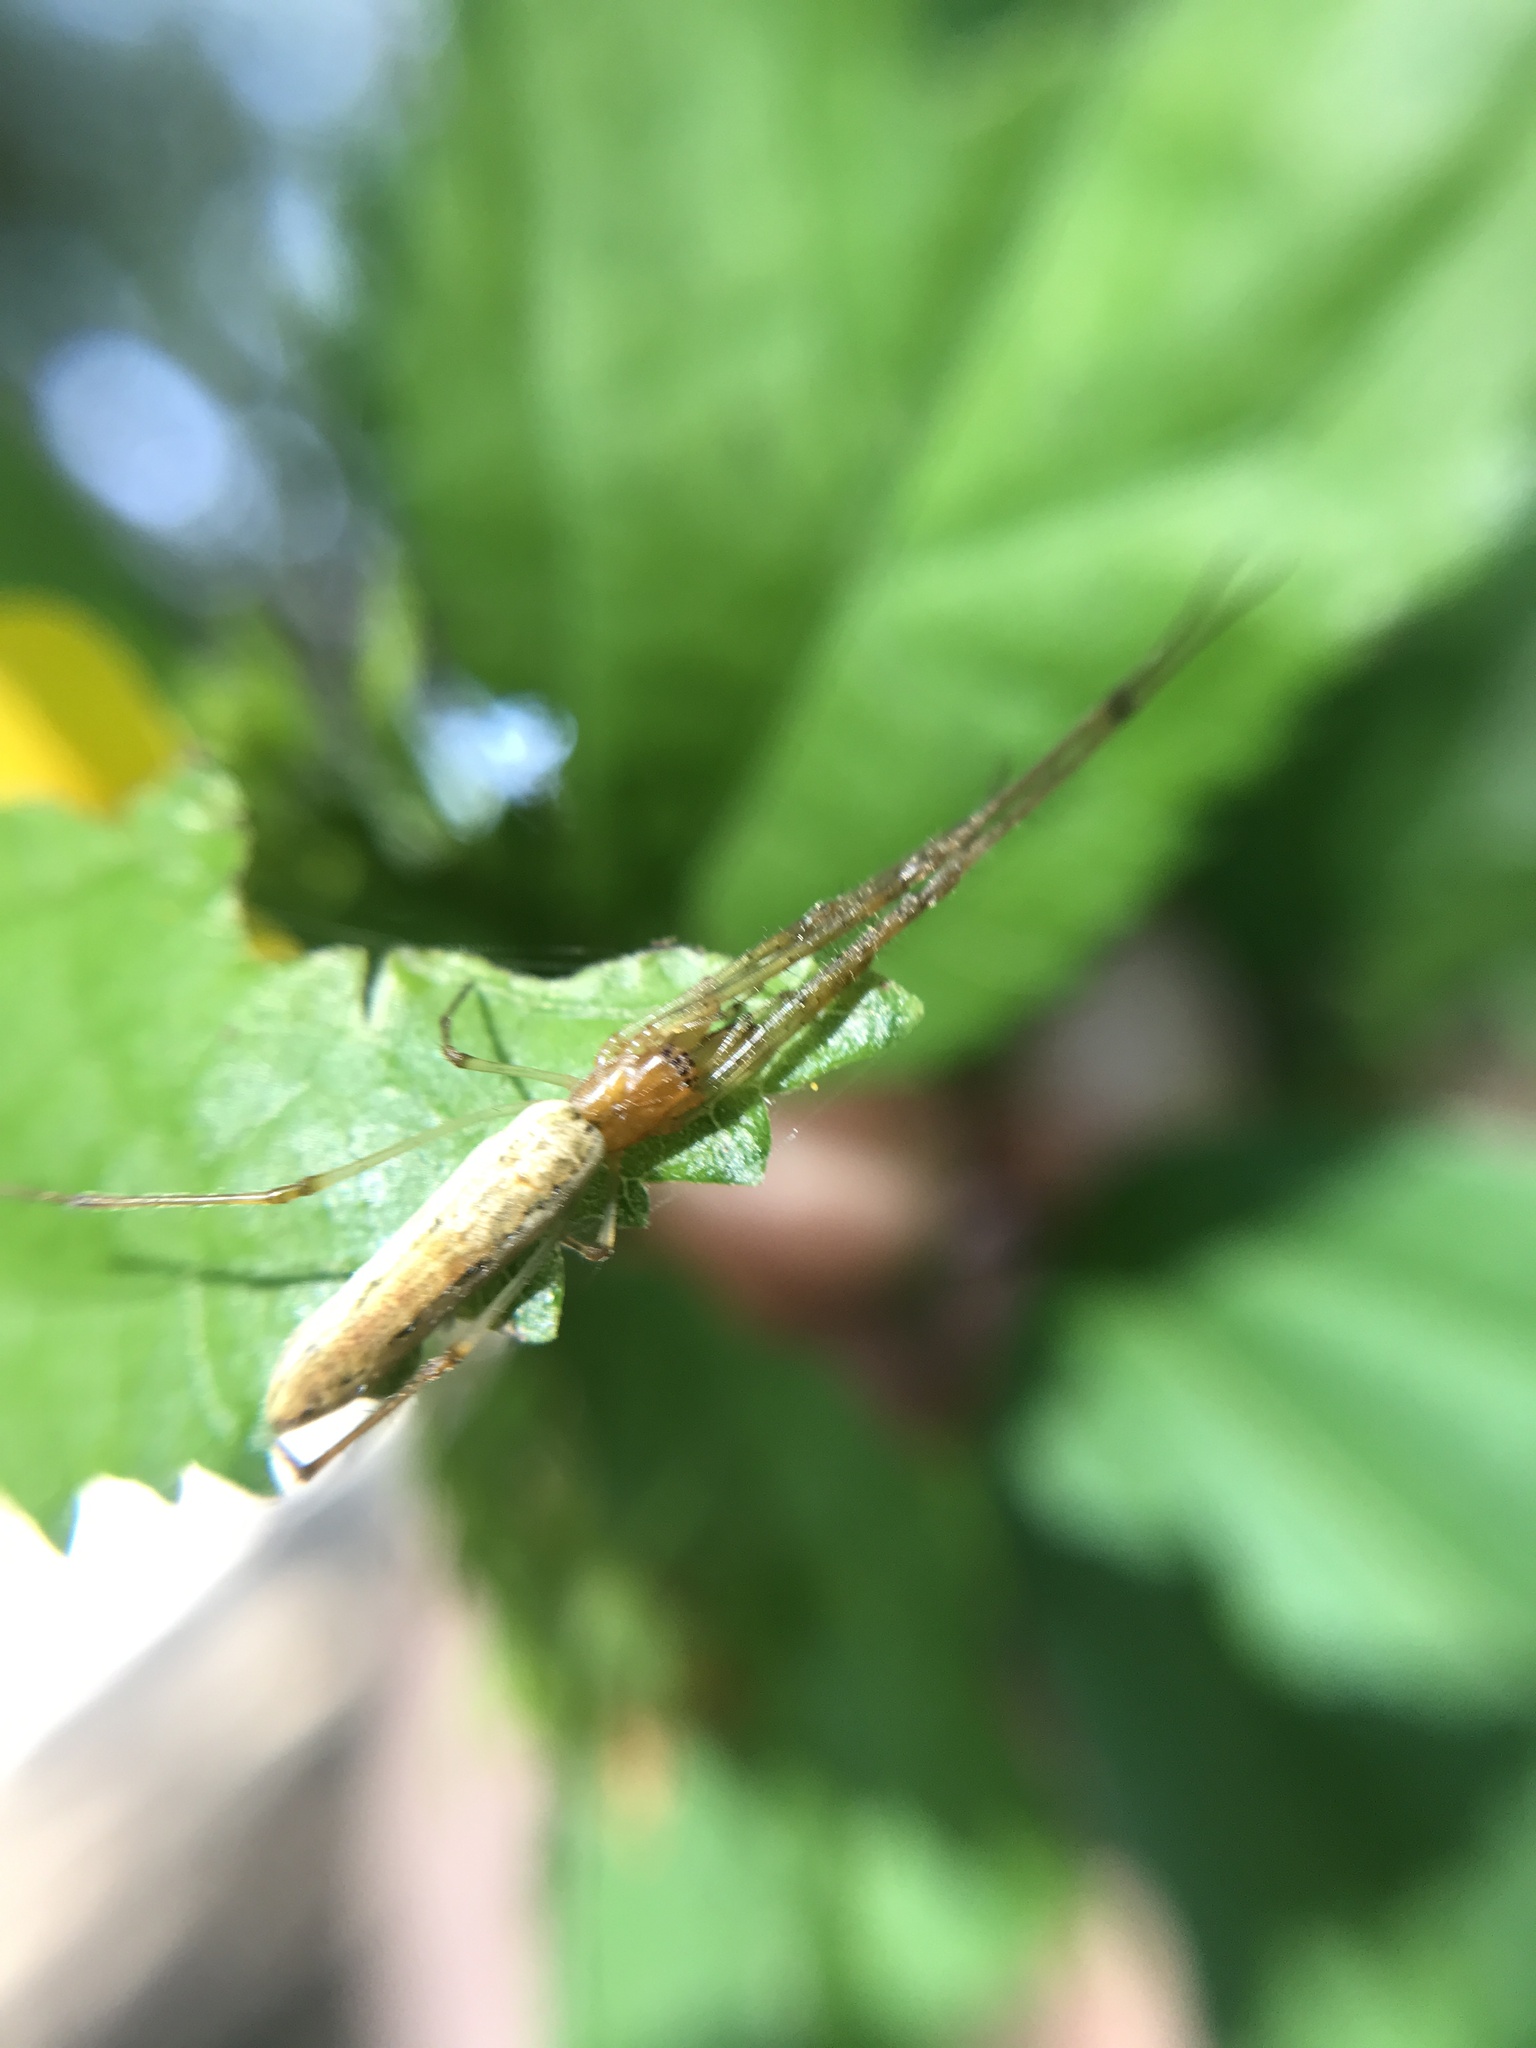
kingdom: Animalia
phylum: Arthropoda
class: Arachnida
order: Araneae
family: Tetragnathidae
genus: Tetragnatha
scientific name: Tetragnatha
